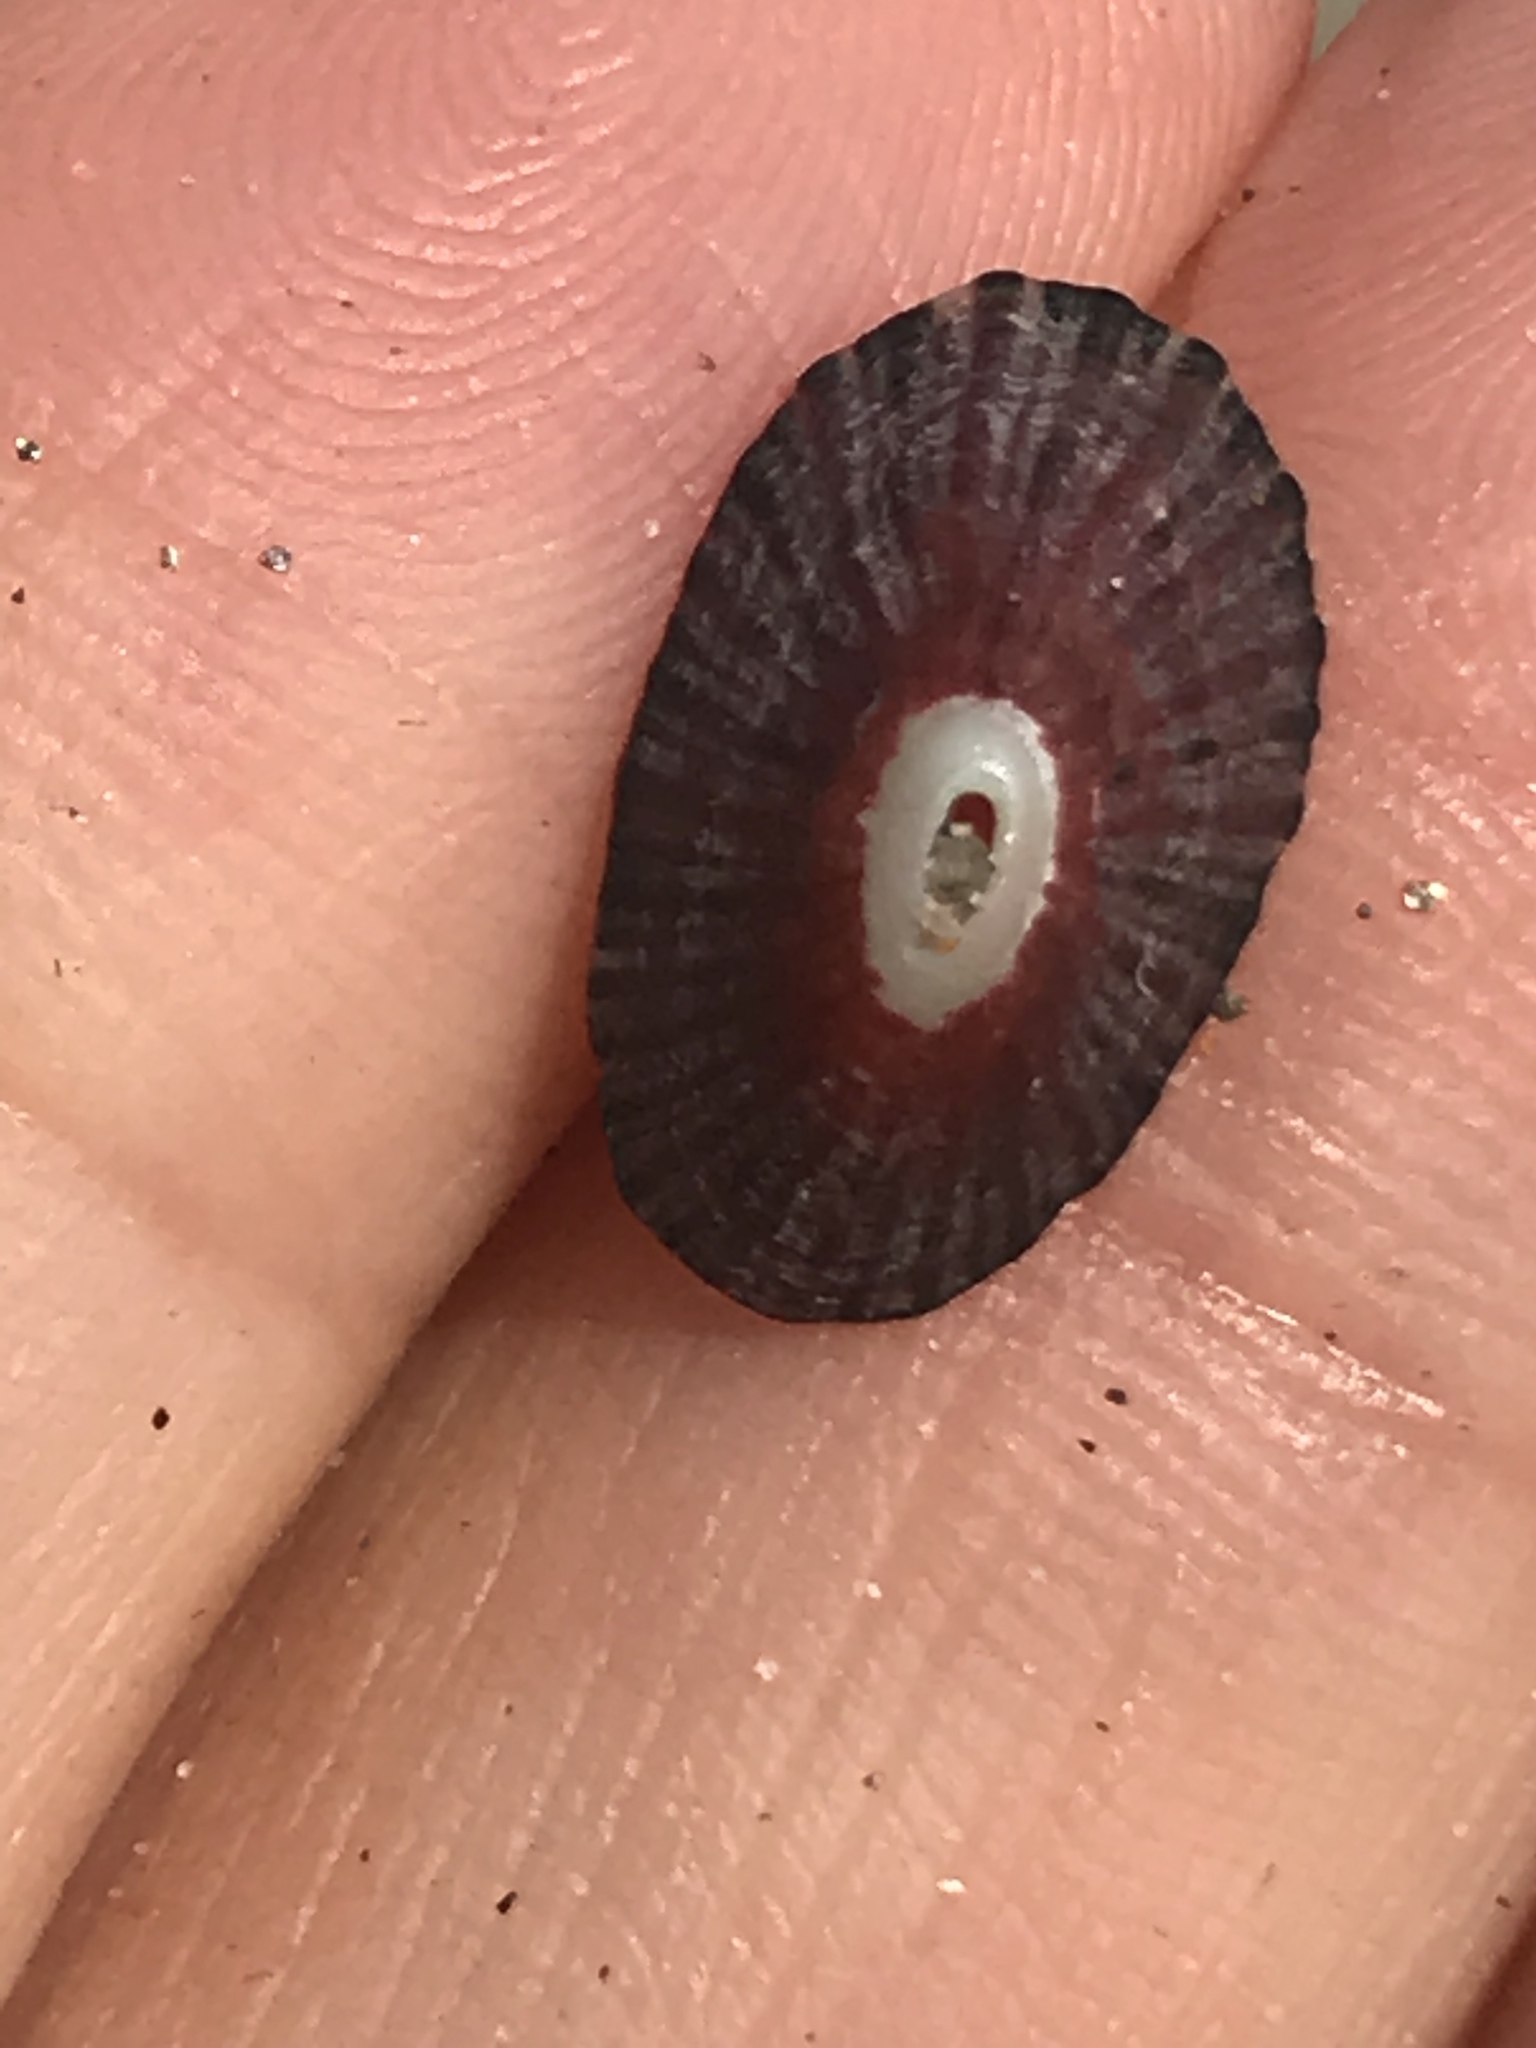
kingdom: Animalia
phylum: Mollusca
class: Gastropoda
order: Lepetellida
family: Fissurellidae
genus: Fissurella
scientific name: Fissurella volcano
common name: Volcano keyhole limpet
